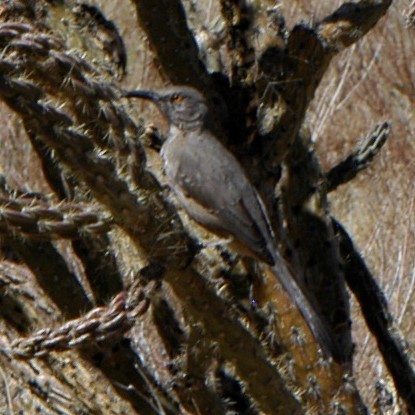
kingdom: Animalia
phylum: Chordata
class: Aves
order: Passeriformes
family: Mimidae
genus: Toxostoma
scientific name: Toxostoma curvirostre
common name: Curve-billed thrasher
